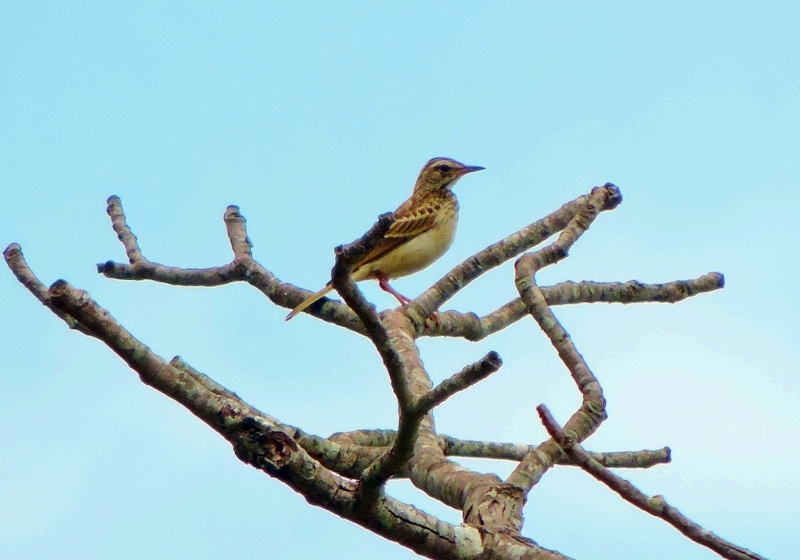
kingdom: Animalia
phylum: Chordata
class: Aves
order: Passeriformes
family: Motacillidae
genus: Anthus
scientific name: Anthus nyassae
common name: Wood pipit
